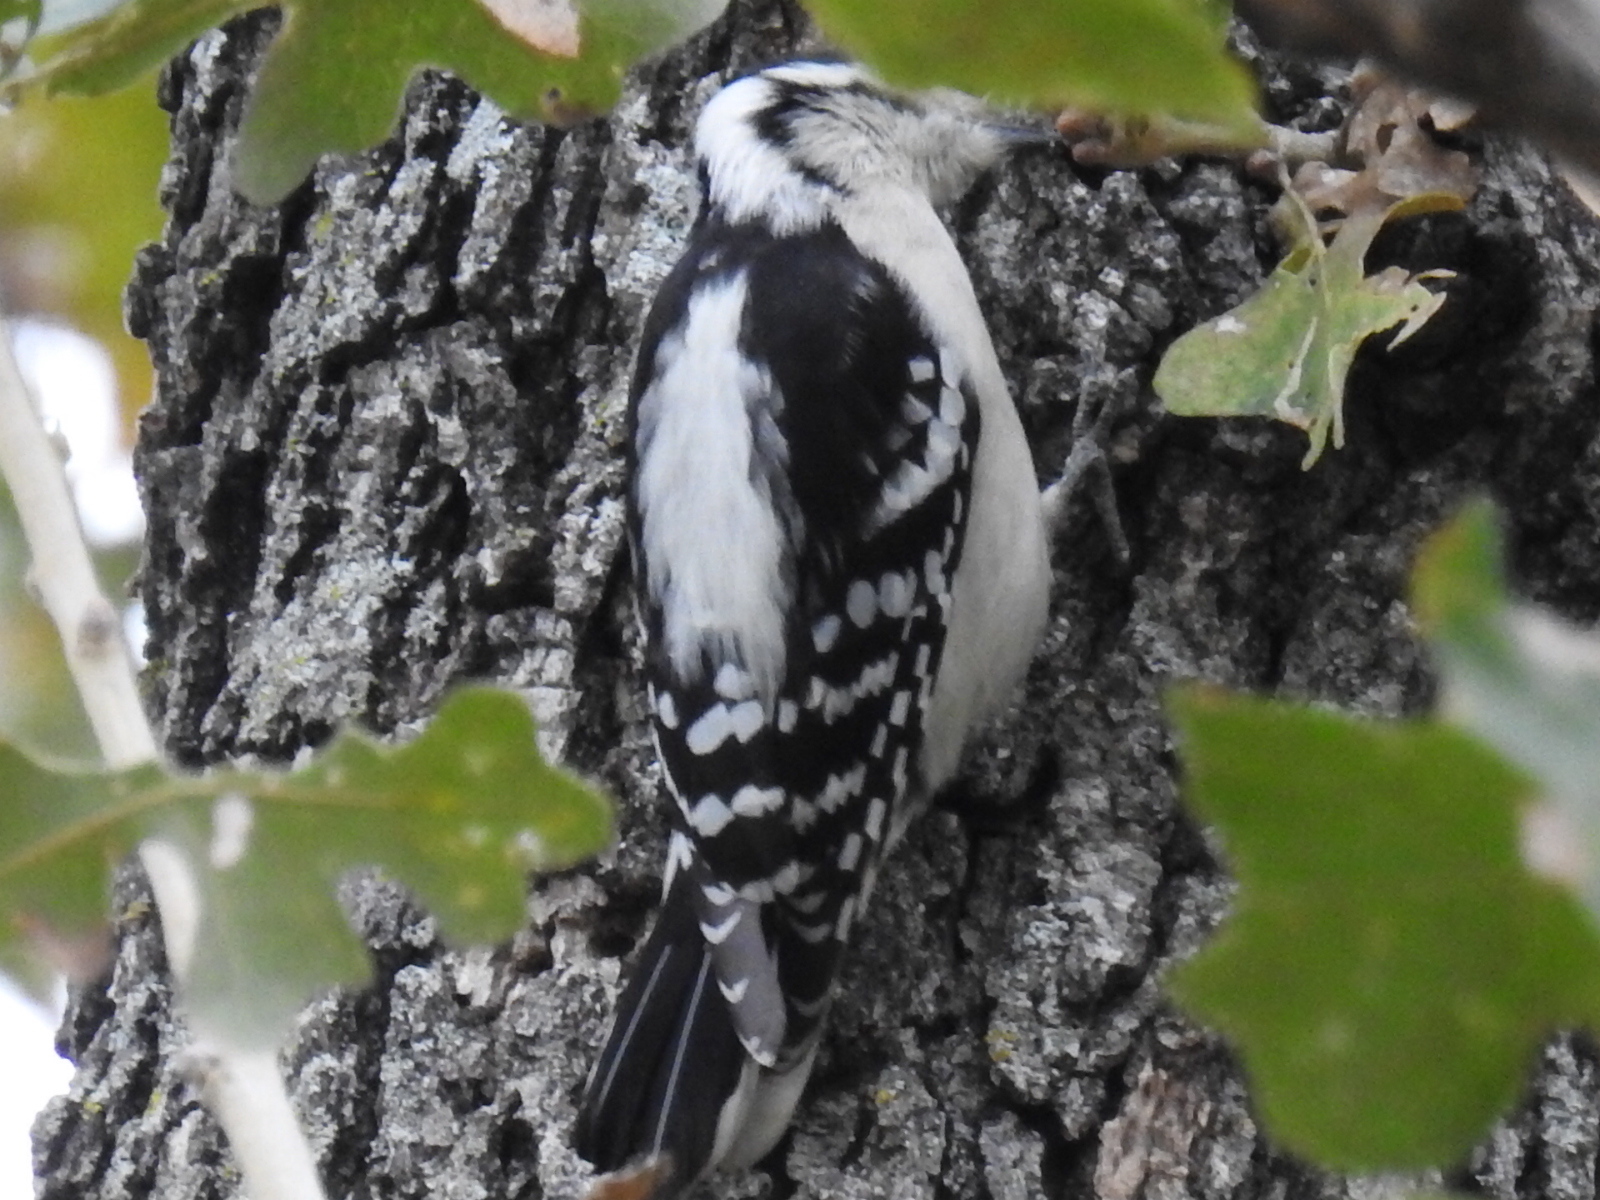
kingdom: Animalia
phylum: Chordata
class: Aves
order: Piciformes
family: Picidae
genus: Dryobates
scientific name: Dryobates pubescens
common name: Downy woodpecker
